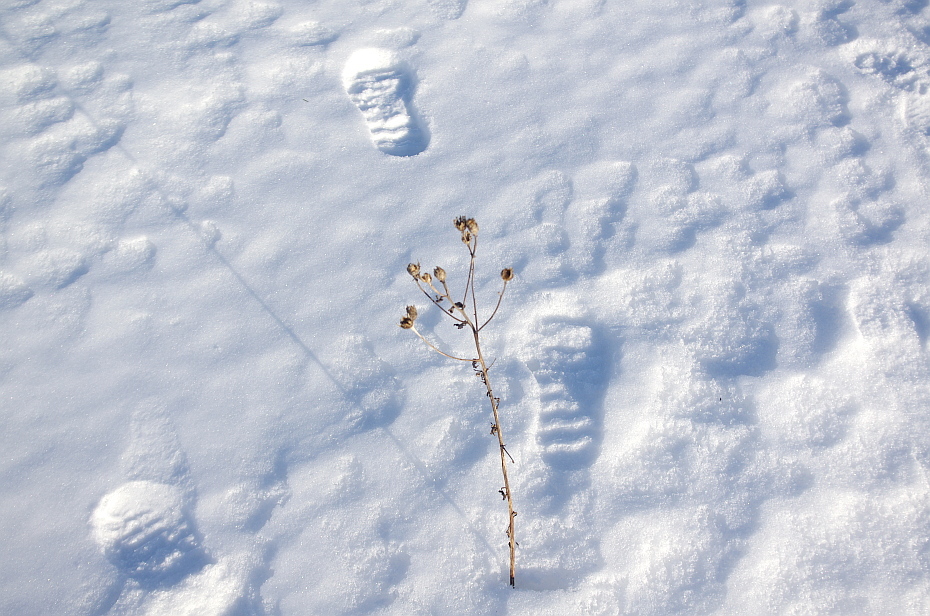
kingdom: Plantae
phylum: Tracheophyta
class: Magnoliopsida
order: Asterales
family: Asteraceae
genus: Centaurea
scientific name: Centaurea jacea
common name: Brown knapweed
